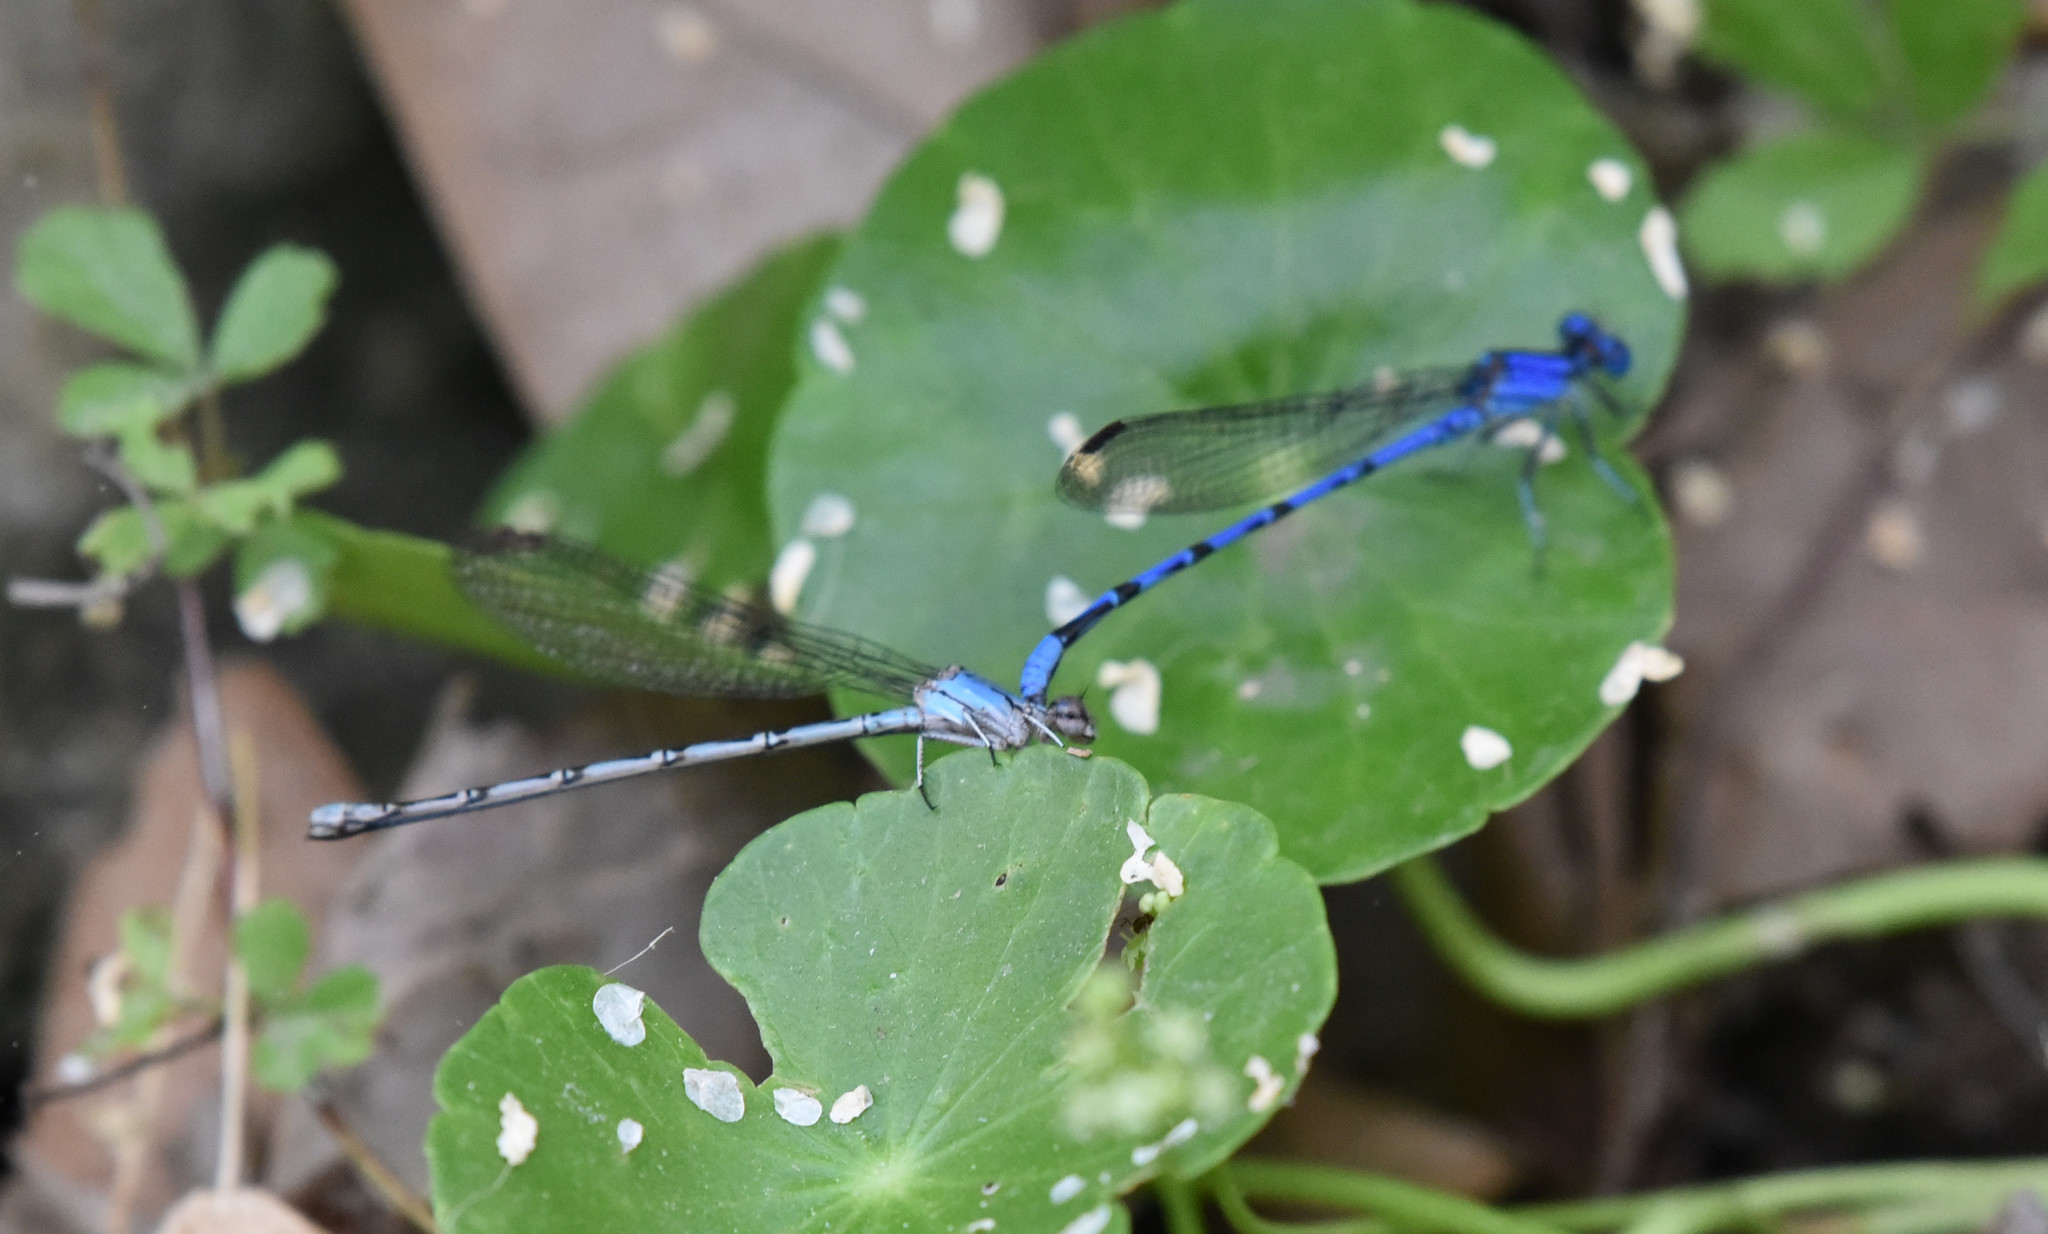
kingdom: Animalia
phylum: Arthropoda
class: Insecta
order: Odonata
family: Coenagrionidae
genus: Argia
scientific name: Argia funebris
